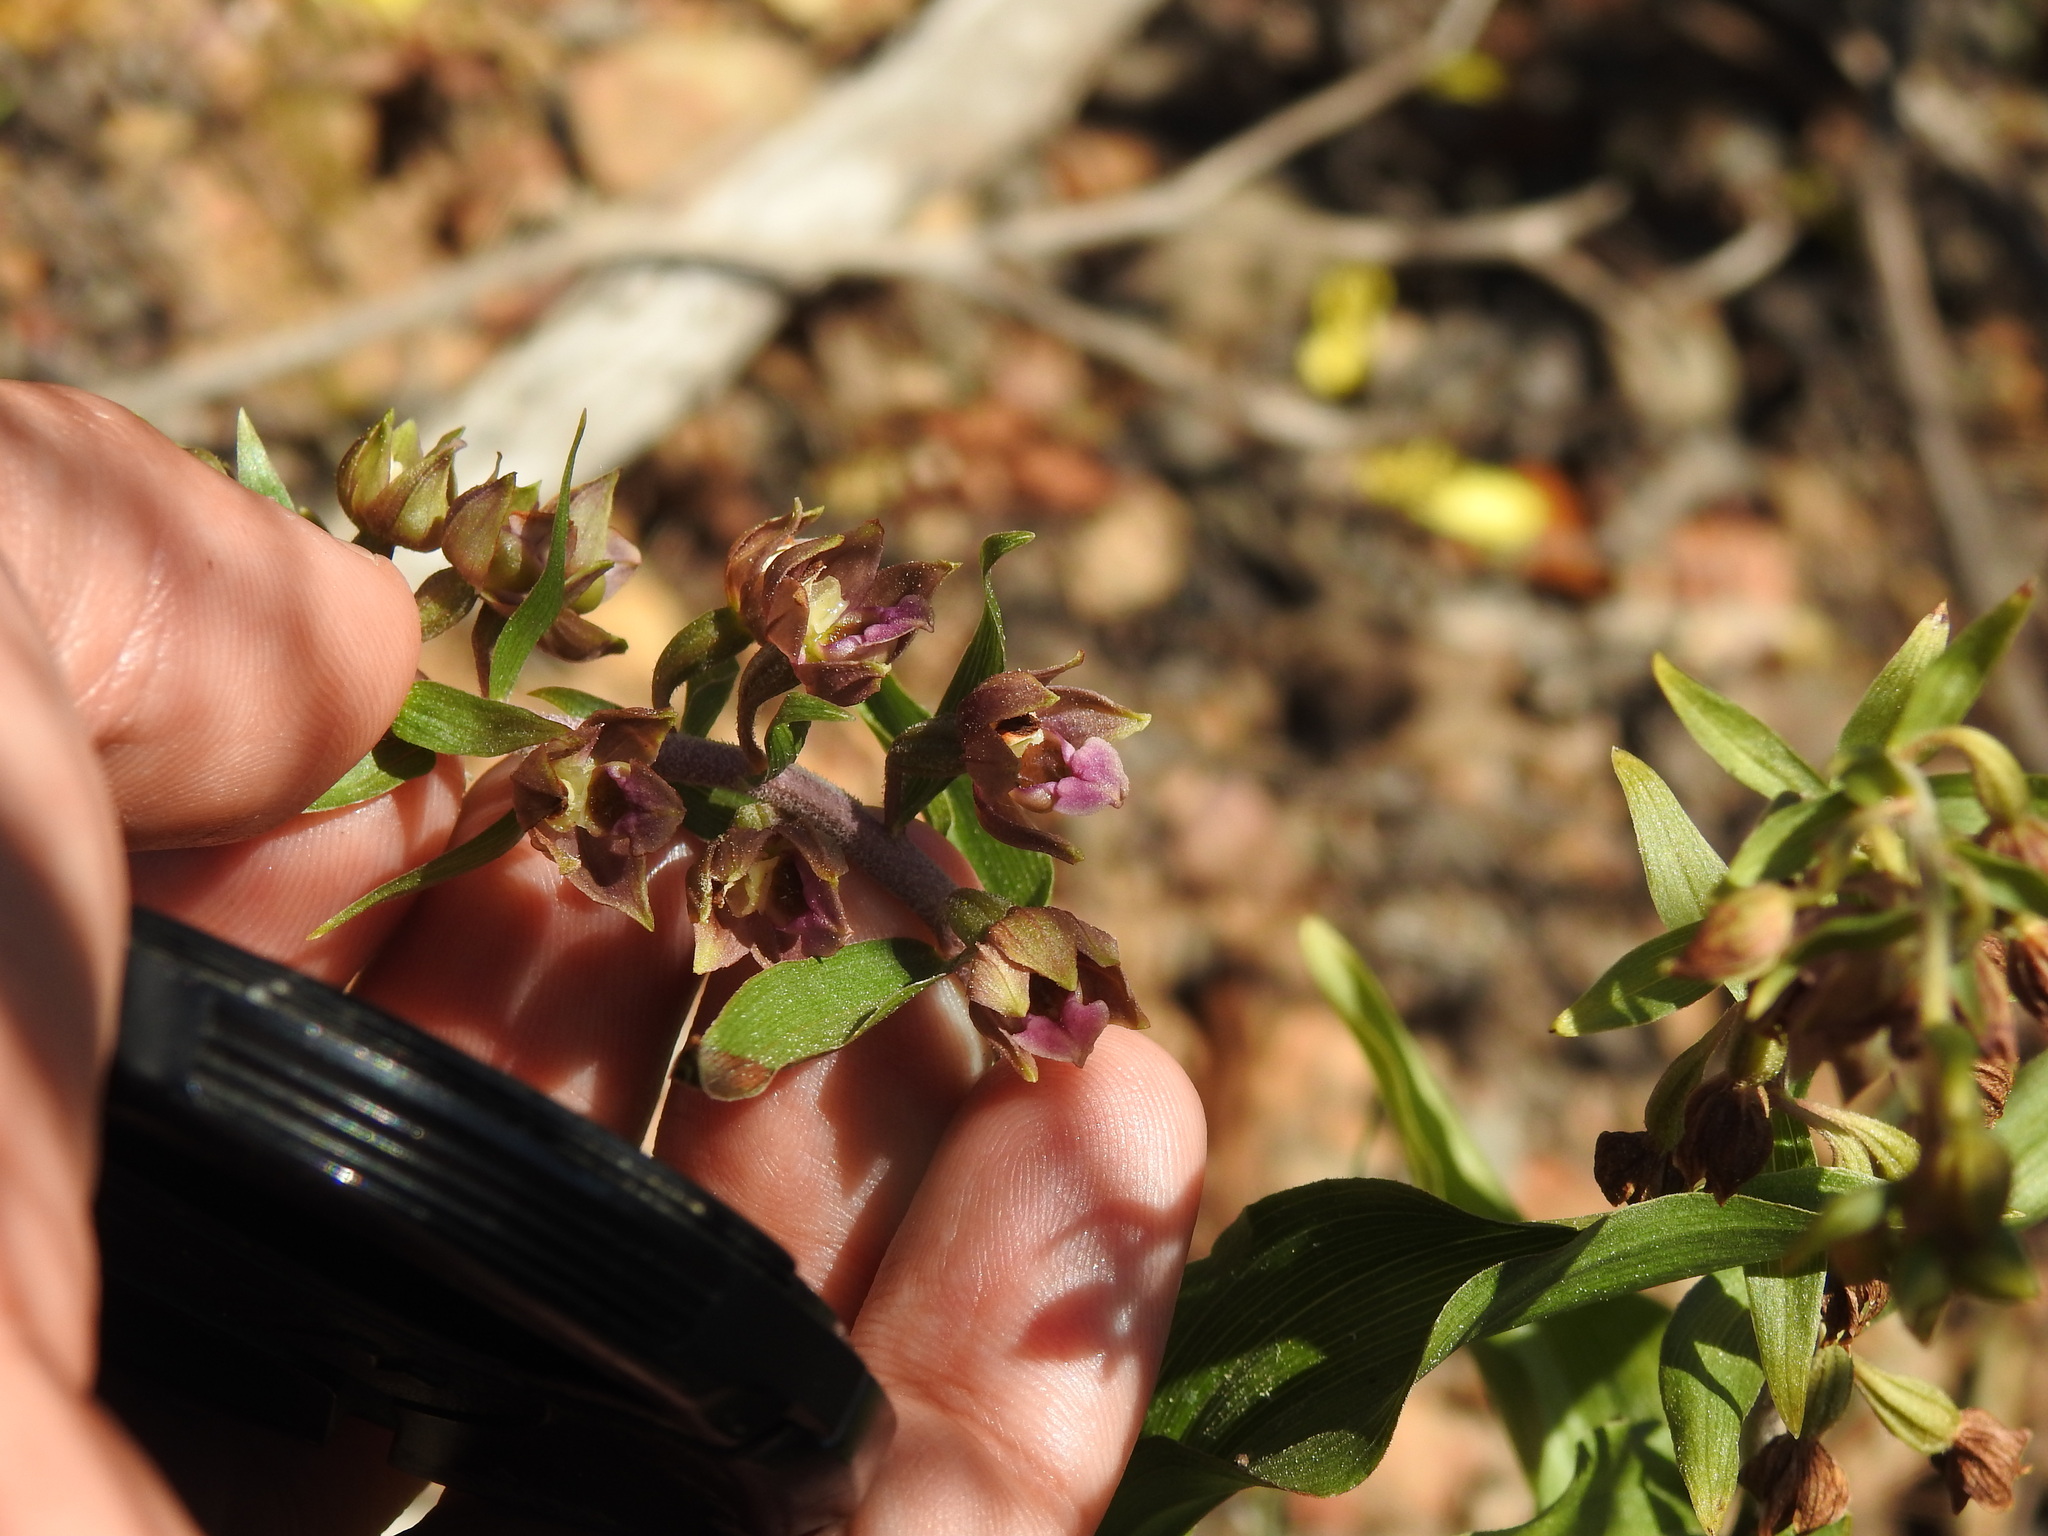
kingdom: Plantae
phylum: Tracheophyta
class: Liliopsida
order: Asparagales
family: Orchidaceae
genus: Epipactis
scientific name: Epipactis helleborine
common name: Broad-leaved helleborine
